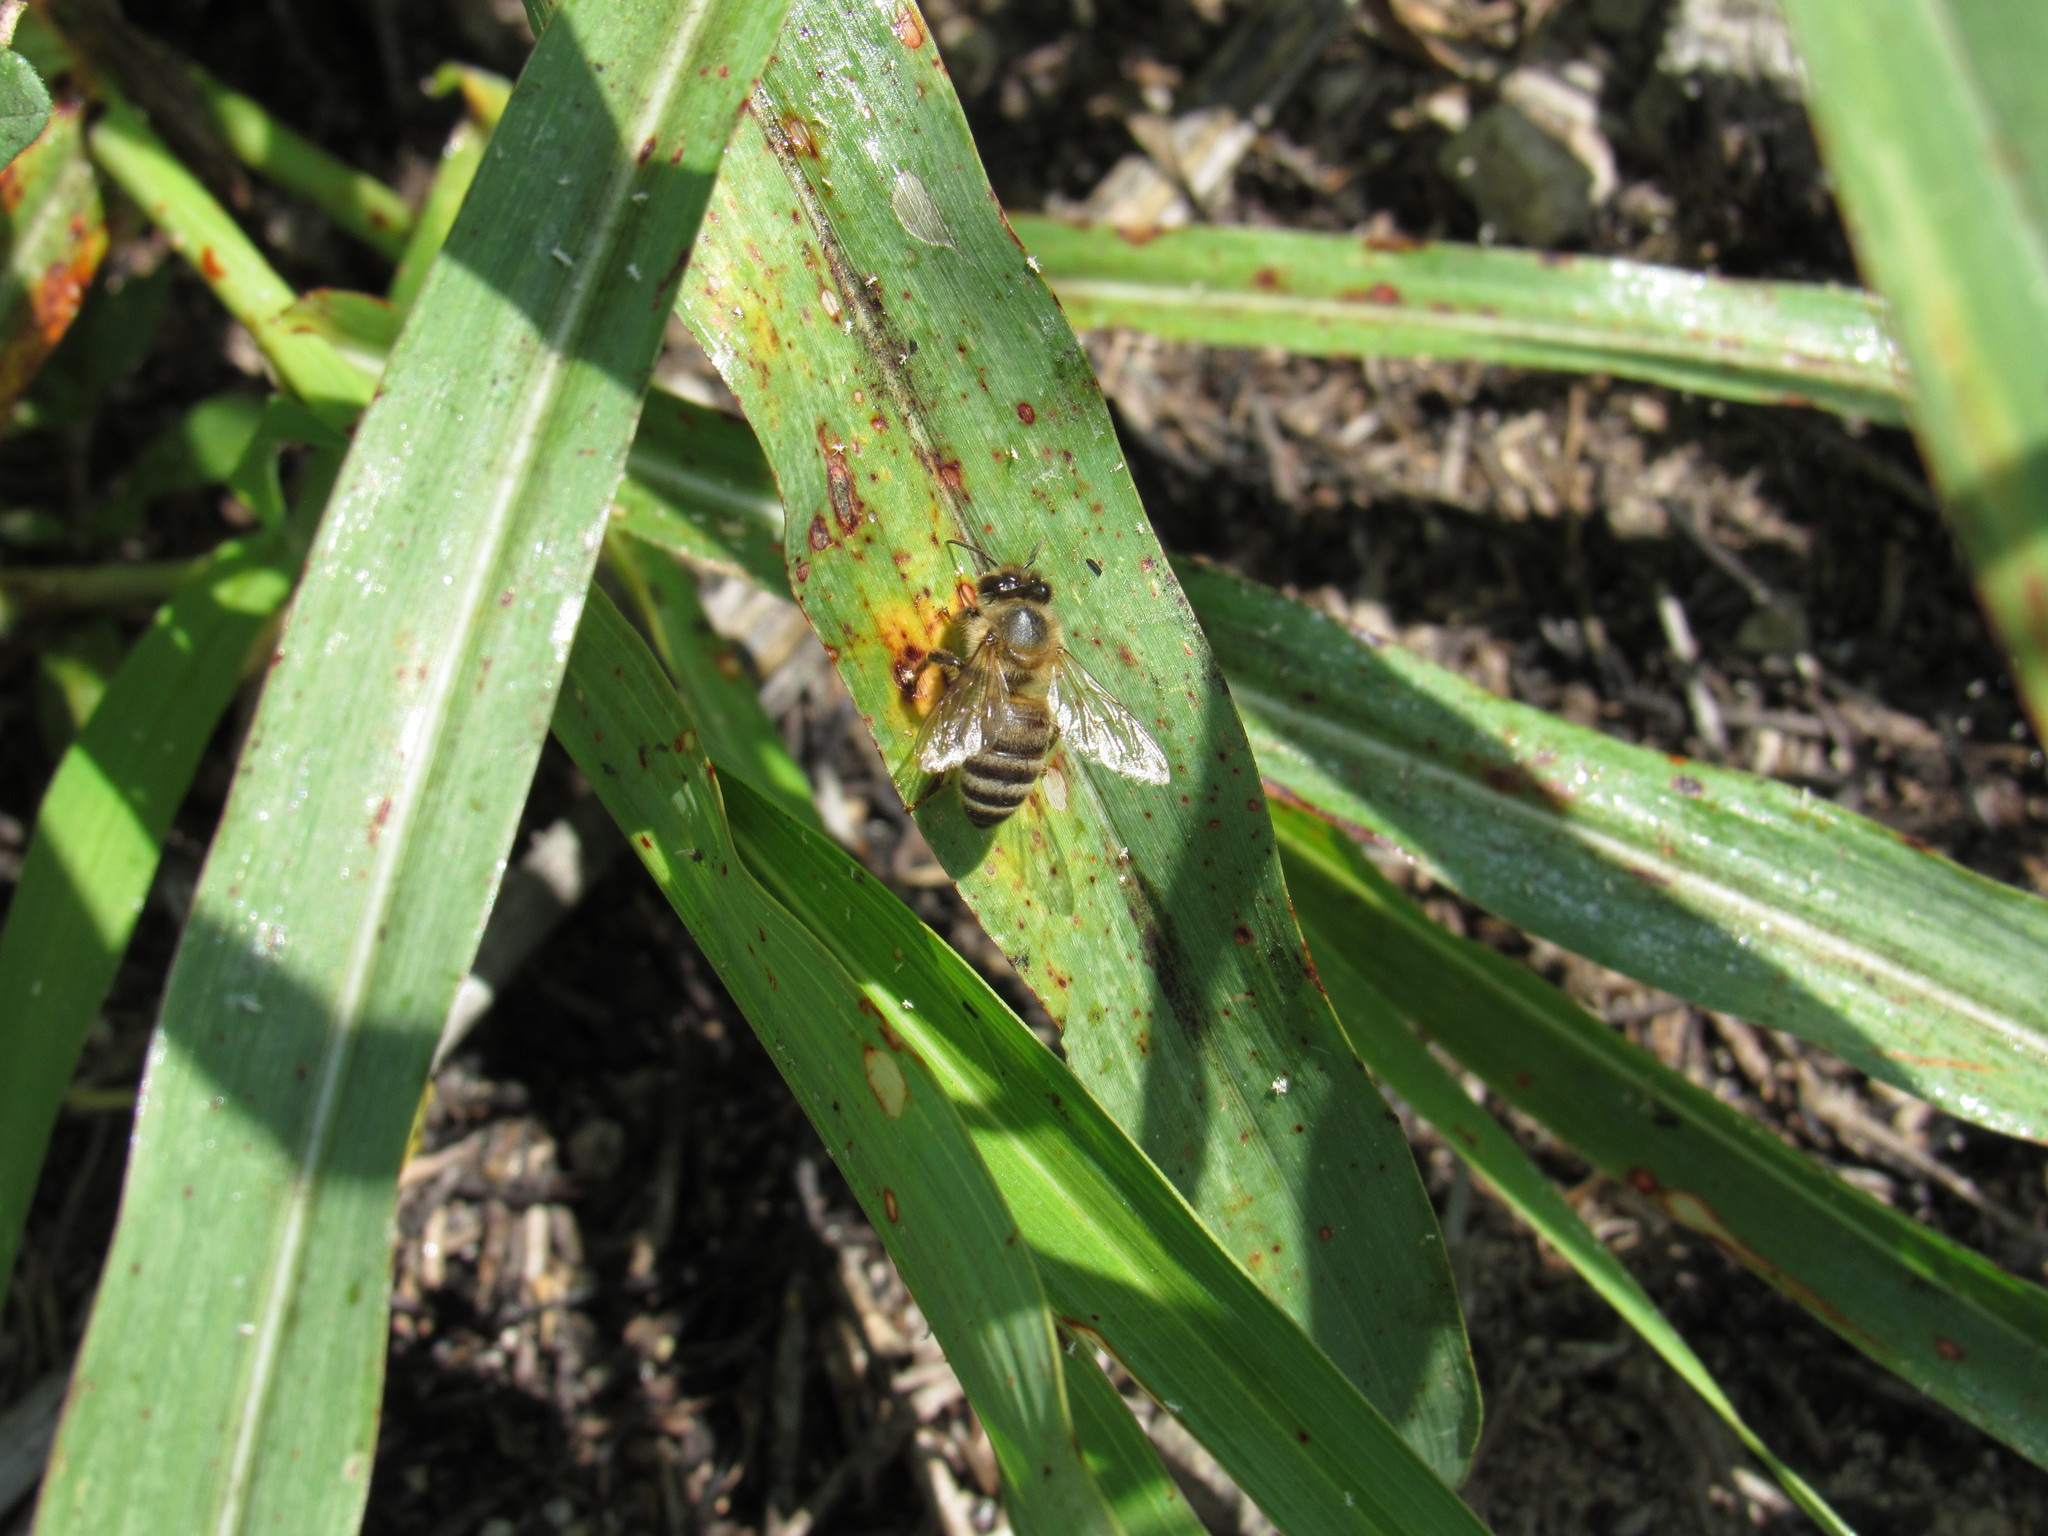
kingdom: Animalia
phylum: Arthropoda
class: Insecta
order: Hymenoptera
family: Apidae
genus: Apis
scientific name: Apis mellifera
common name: Honey bee
